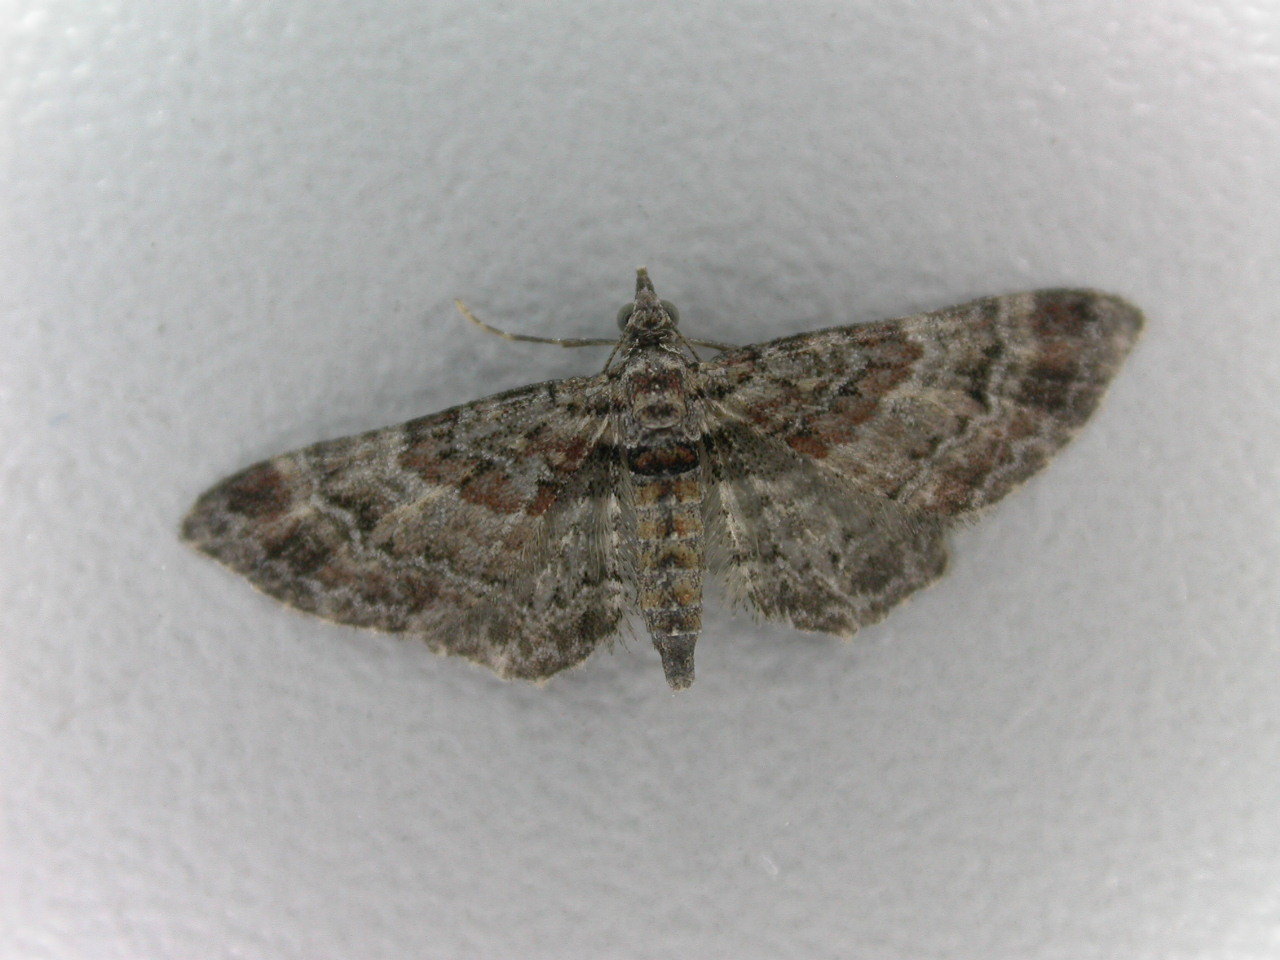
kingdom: Animalia
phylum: Arthropoda
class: Insecta
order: Lepidoptera
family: Geometridae
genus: Gymnoscelis
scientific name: Gymnoscelis rufifasciata
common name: Double-striped pug
